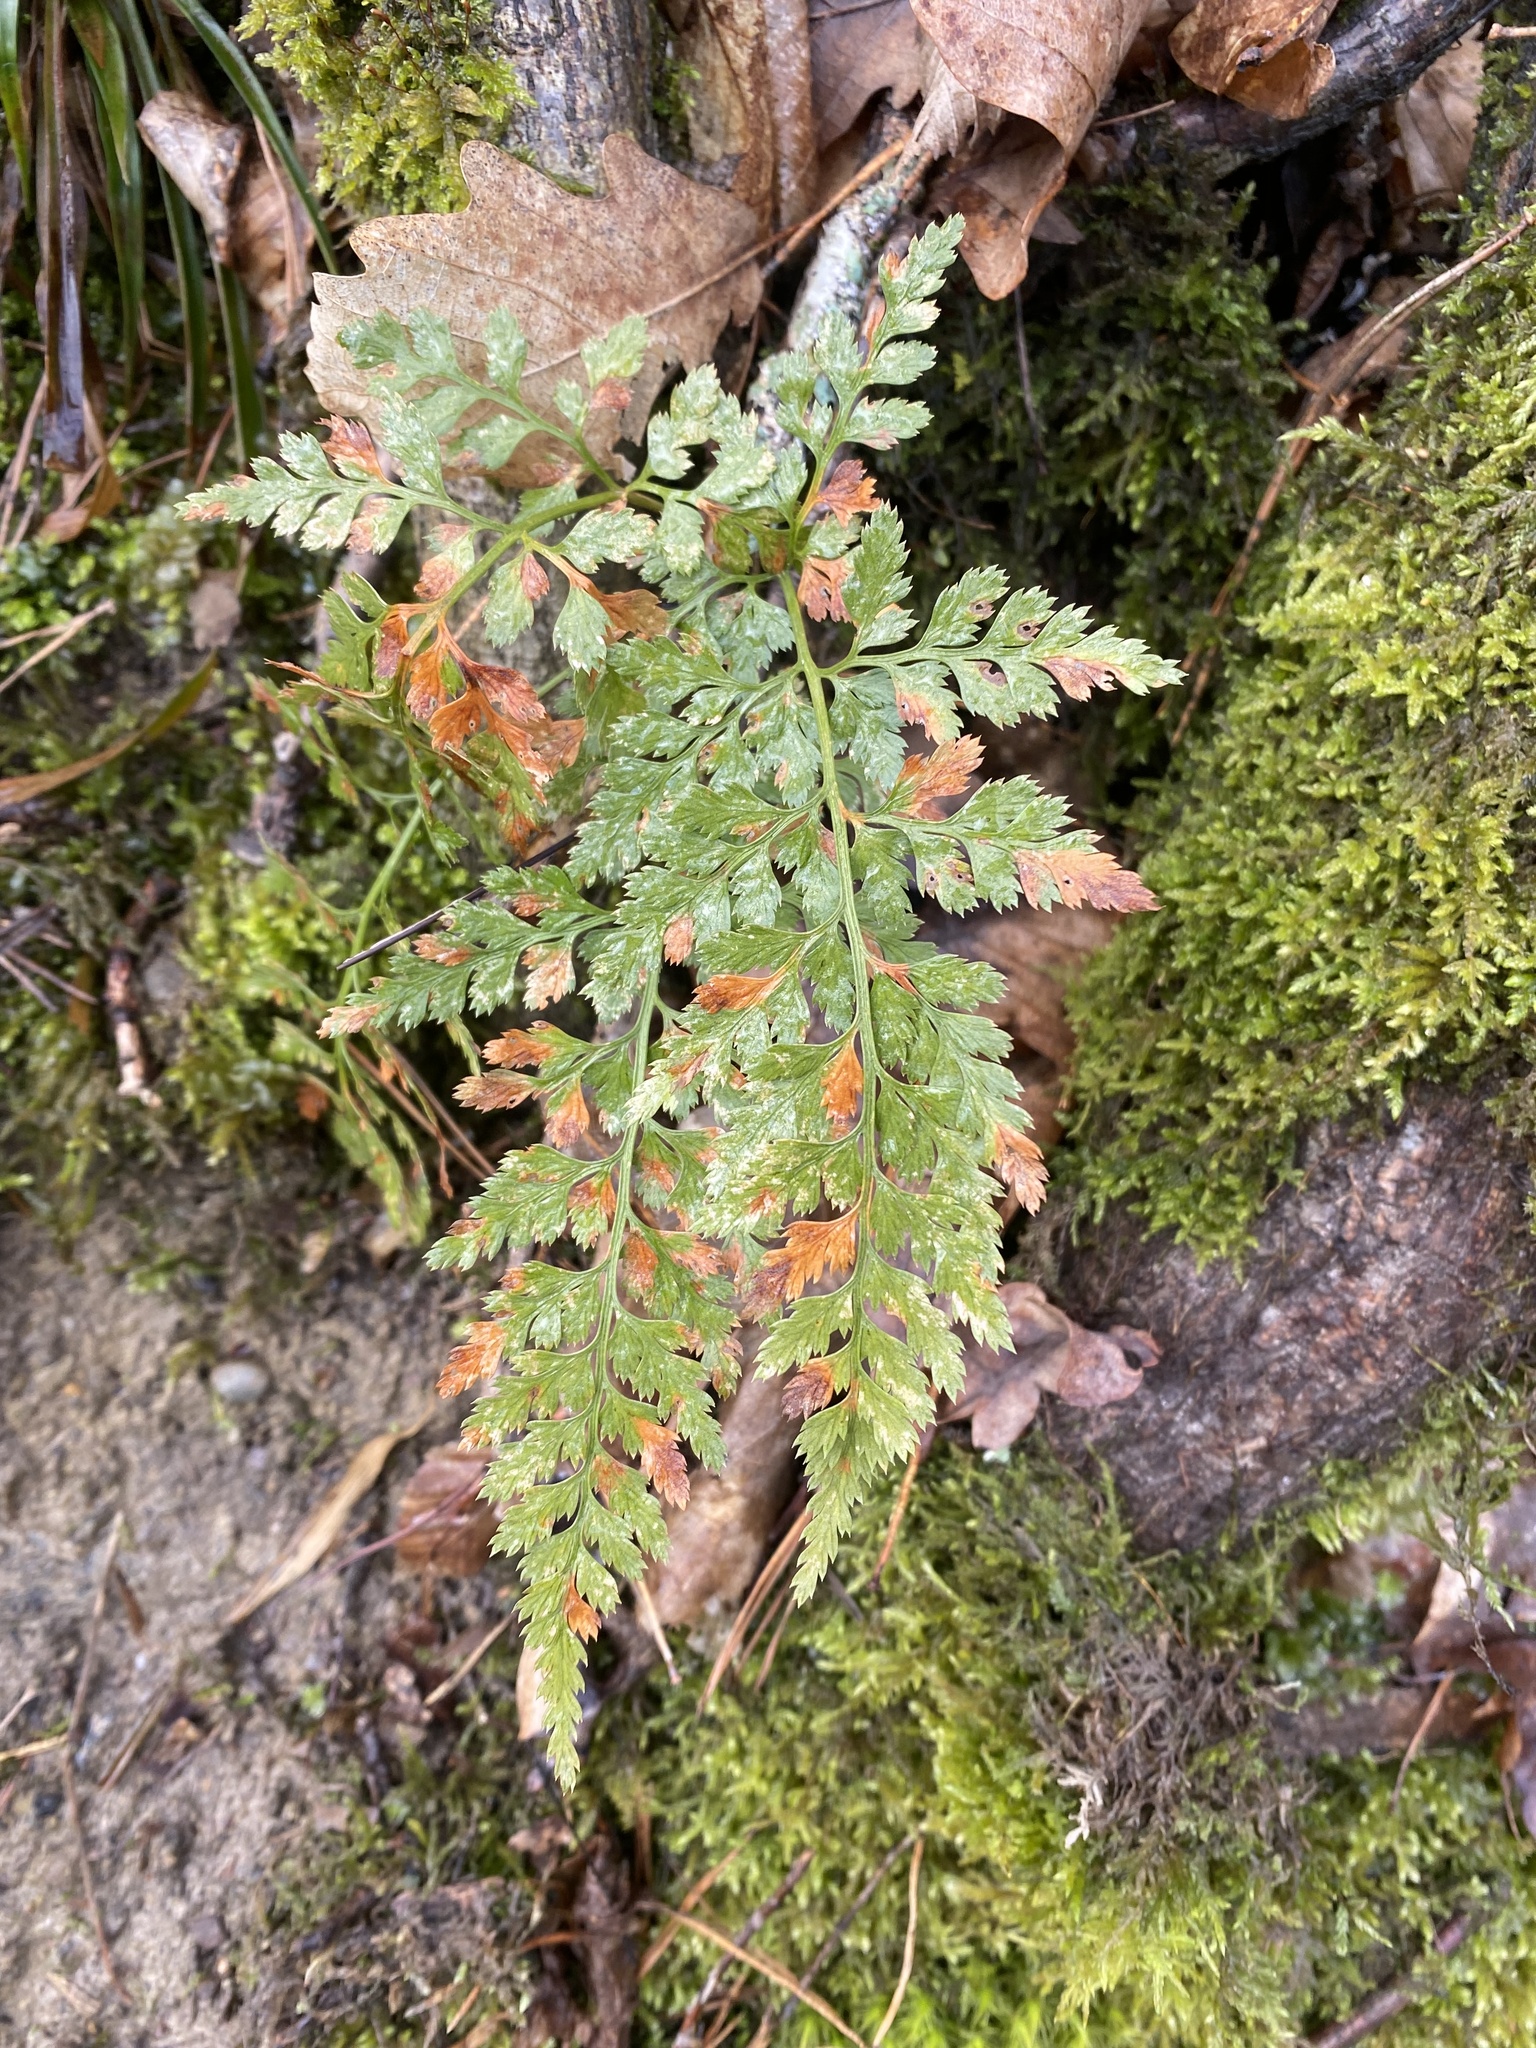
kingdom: Plantae
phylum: Tracheophyta
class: Polypodiopsida
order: Polypodiales
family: Aspleniaceae
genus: Asplenium
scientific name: Asplenium adiantum-nigrum
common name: Black spleenwort
